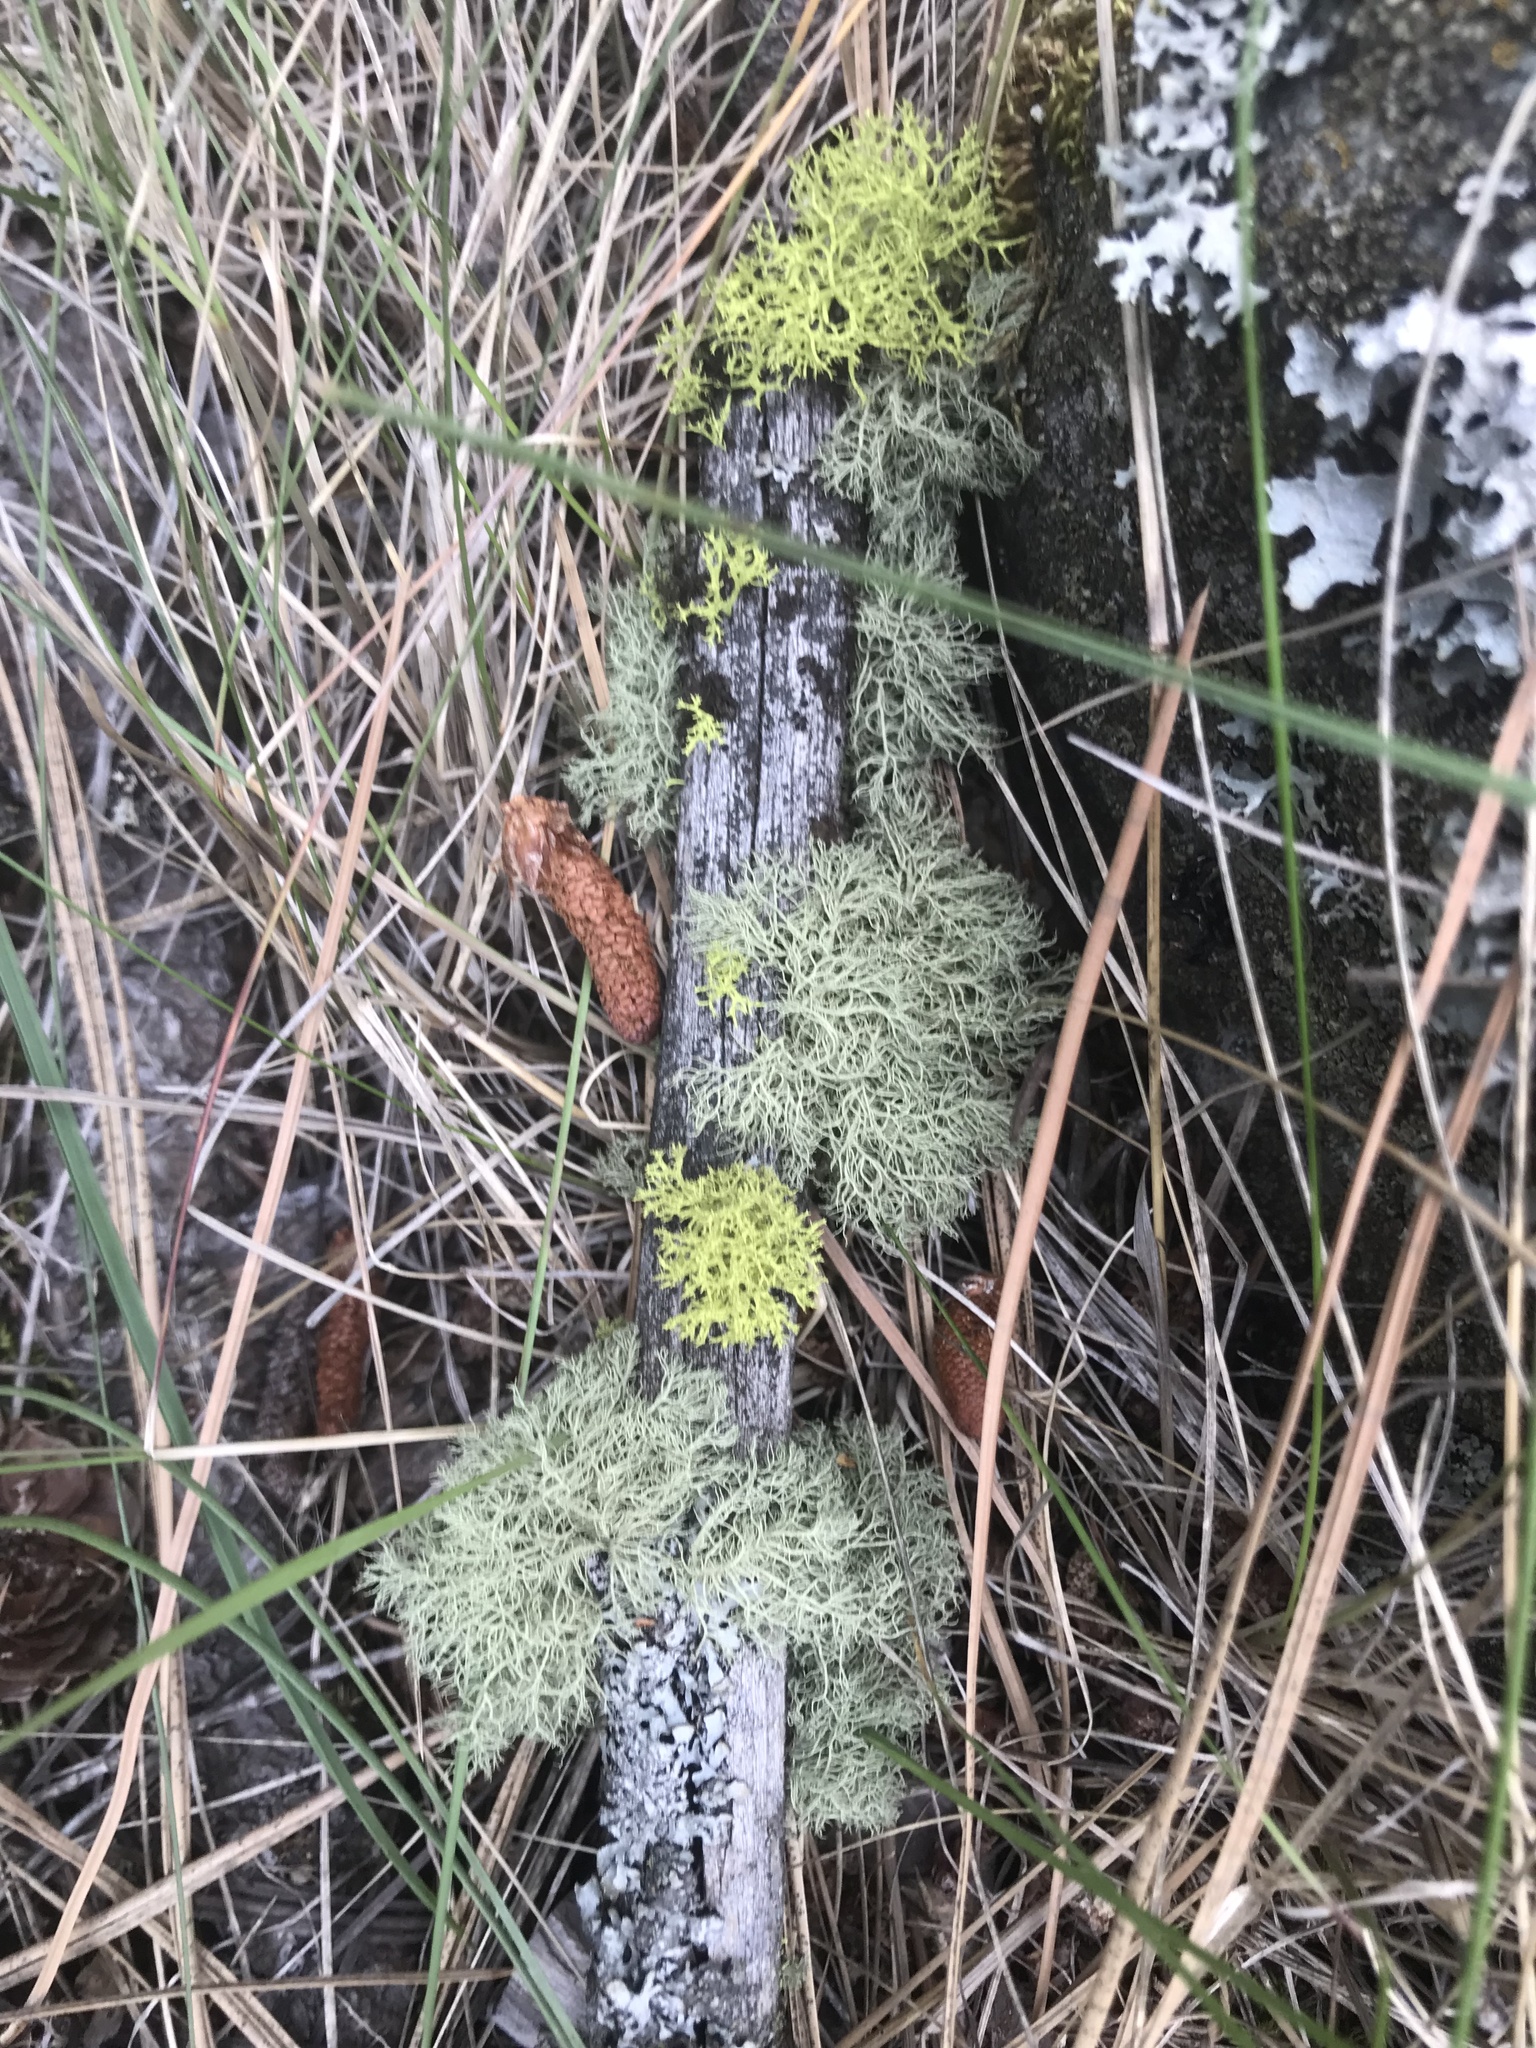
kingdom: Fungi
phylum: Ascomycota
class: Lecanoromycetes
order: Lecanorales
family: Parmeliaceae
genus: Letharia
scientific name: Letharia vulpina
